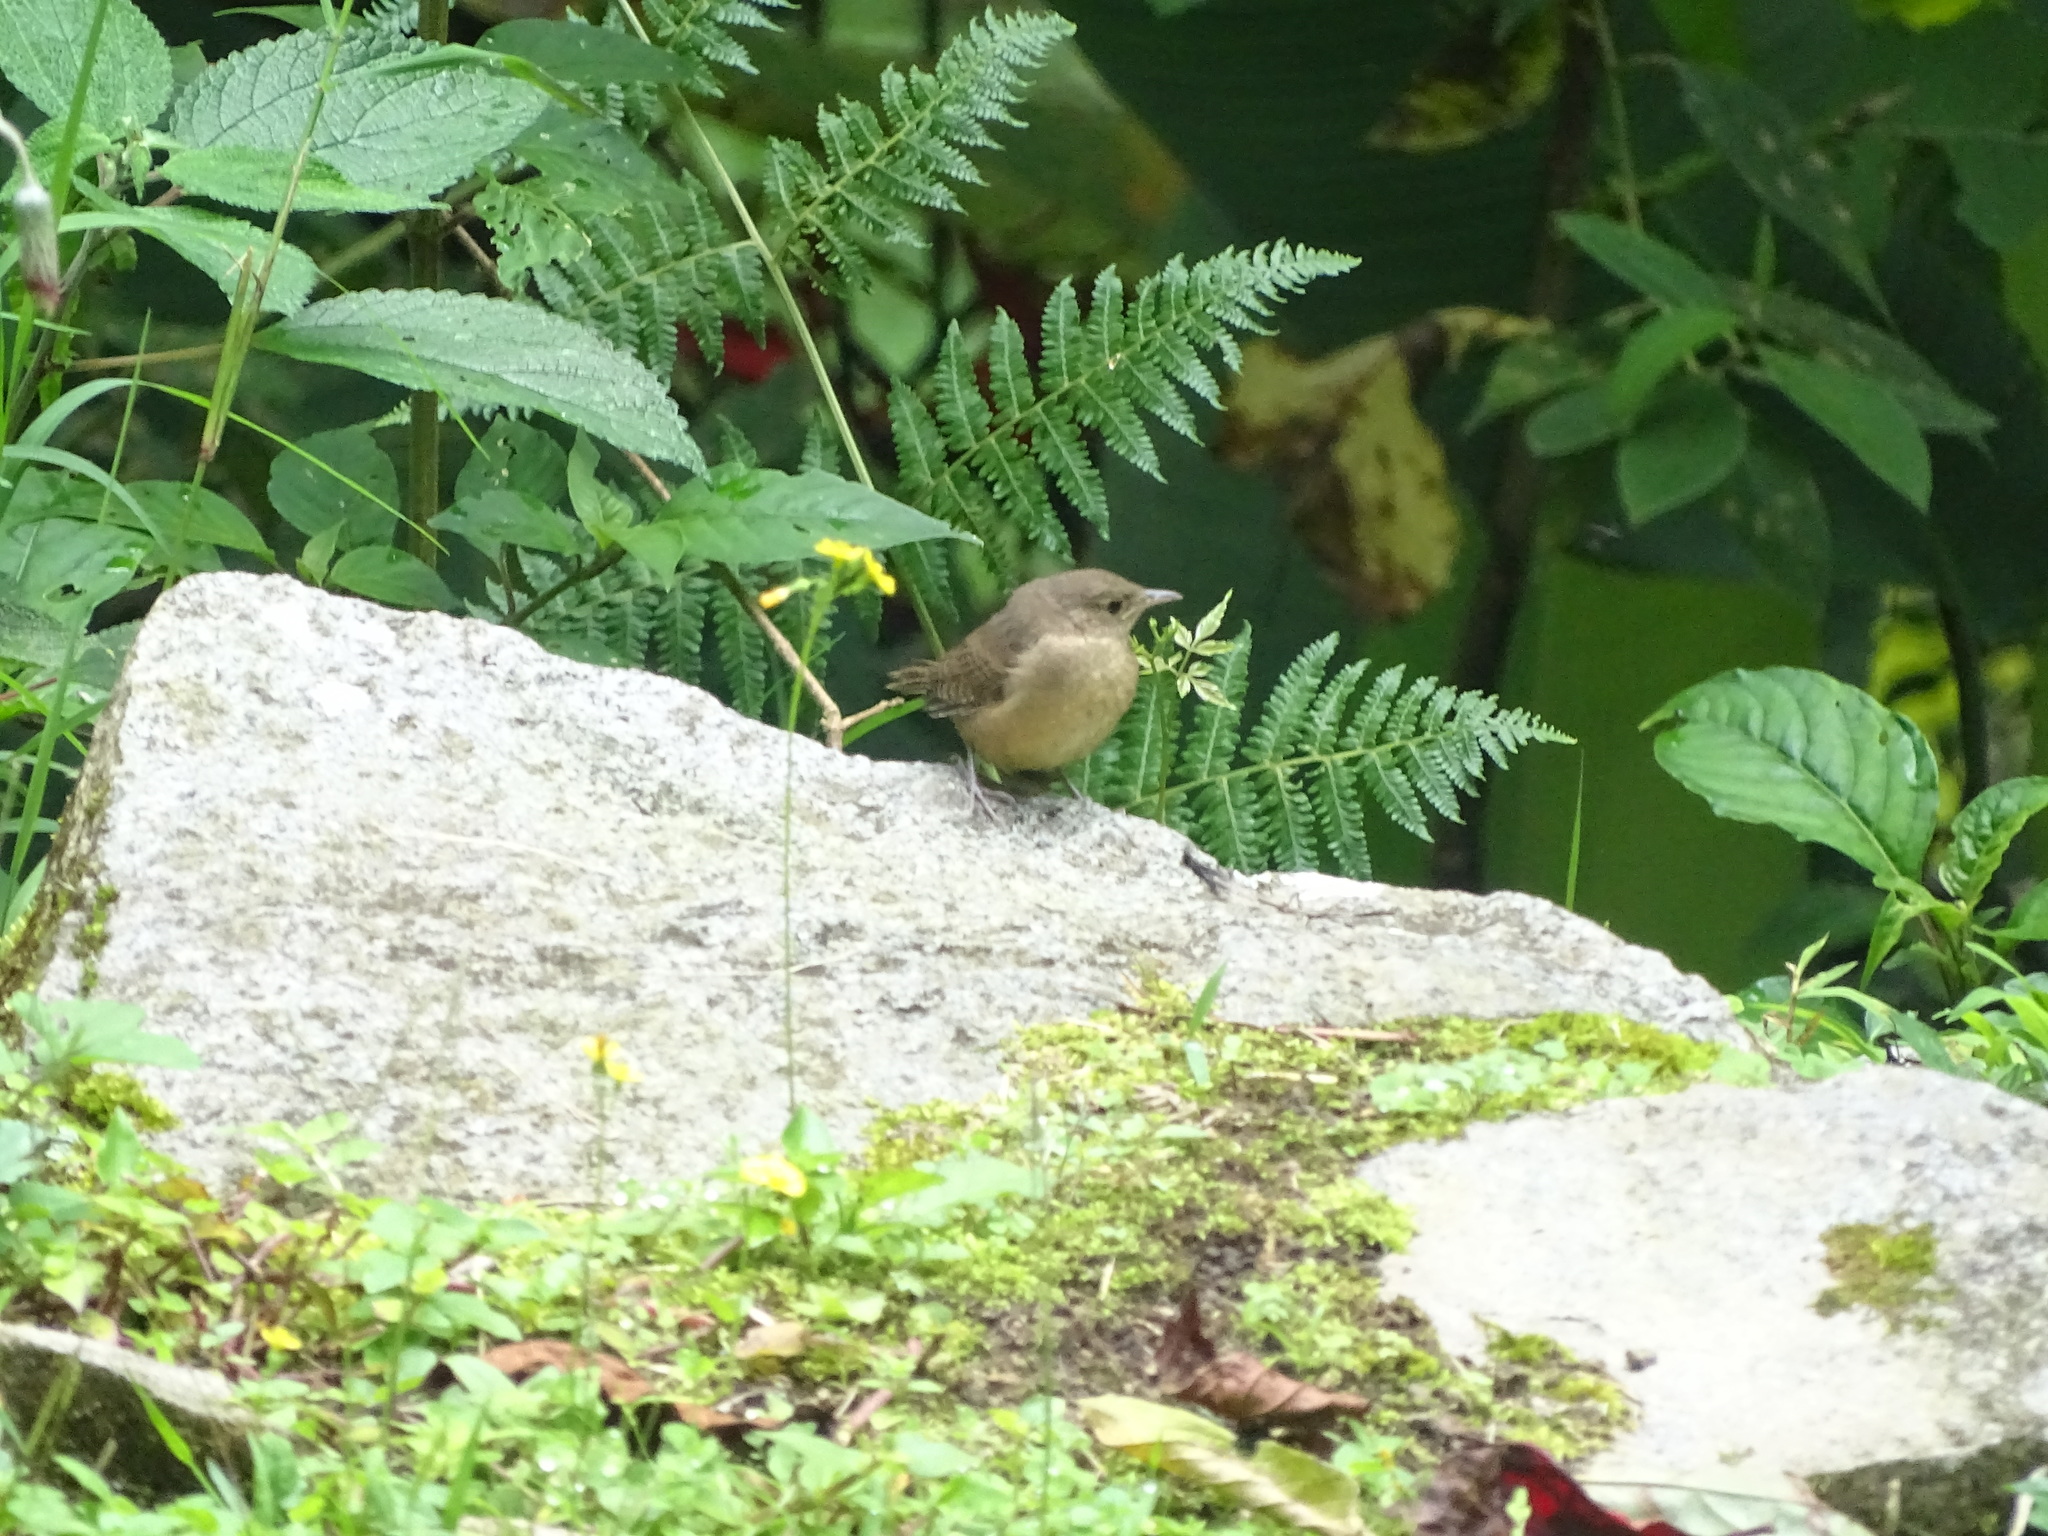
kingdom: Animalia
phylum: Chordata
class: Aves
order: Passeriformes
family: Troglodytidae
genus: Troglodytes
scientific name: Troglodytes aedon
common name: House wren
